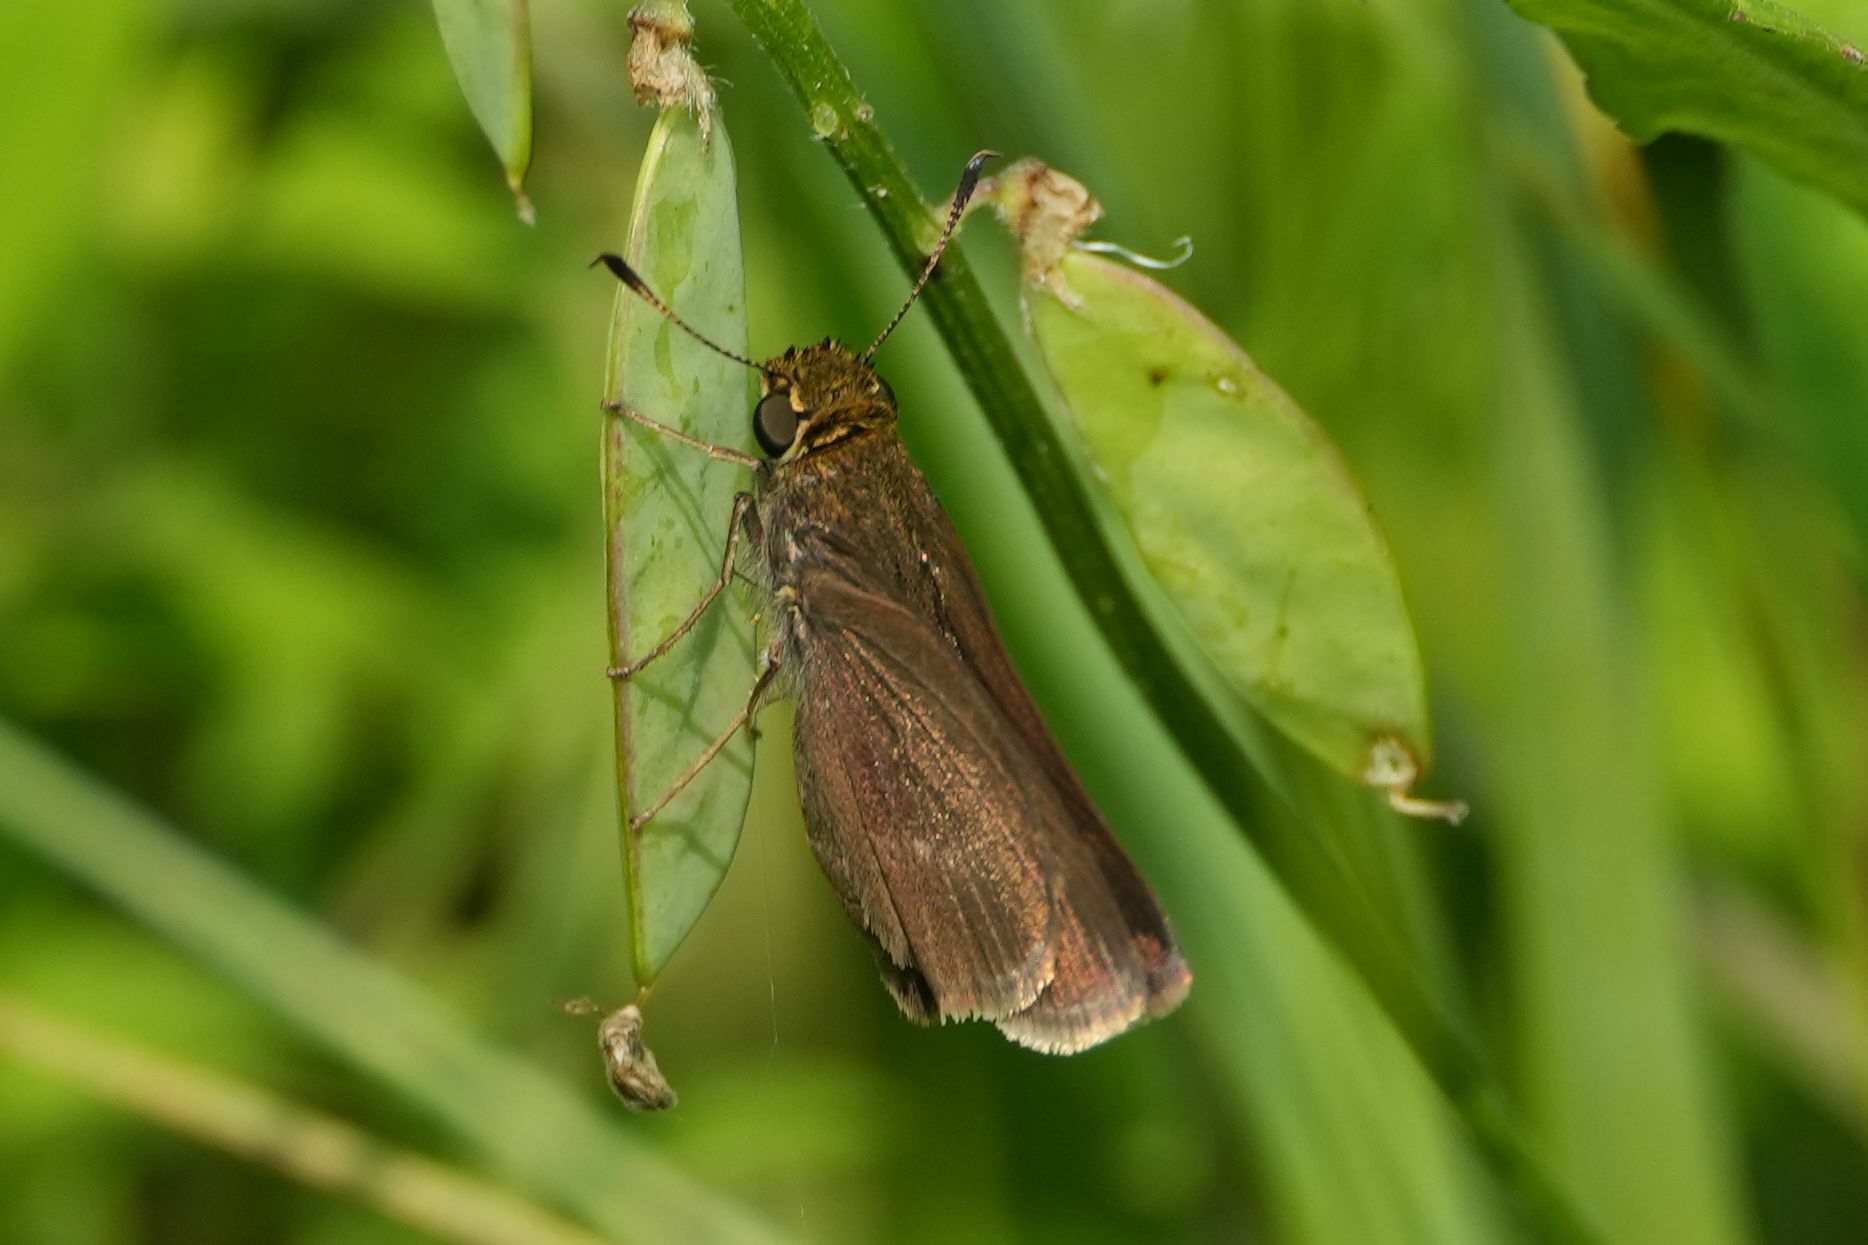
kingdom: Animalia
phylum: Arthropoda
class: Insecta
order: Lepidoptera
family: Hesperiidae
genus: Euphyes
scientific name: Euphyes vestris
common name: Dun skipper
